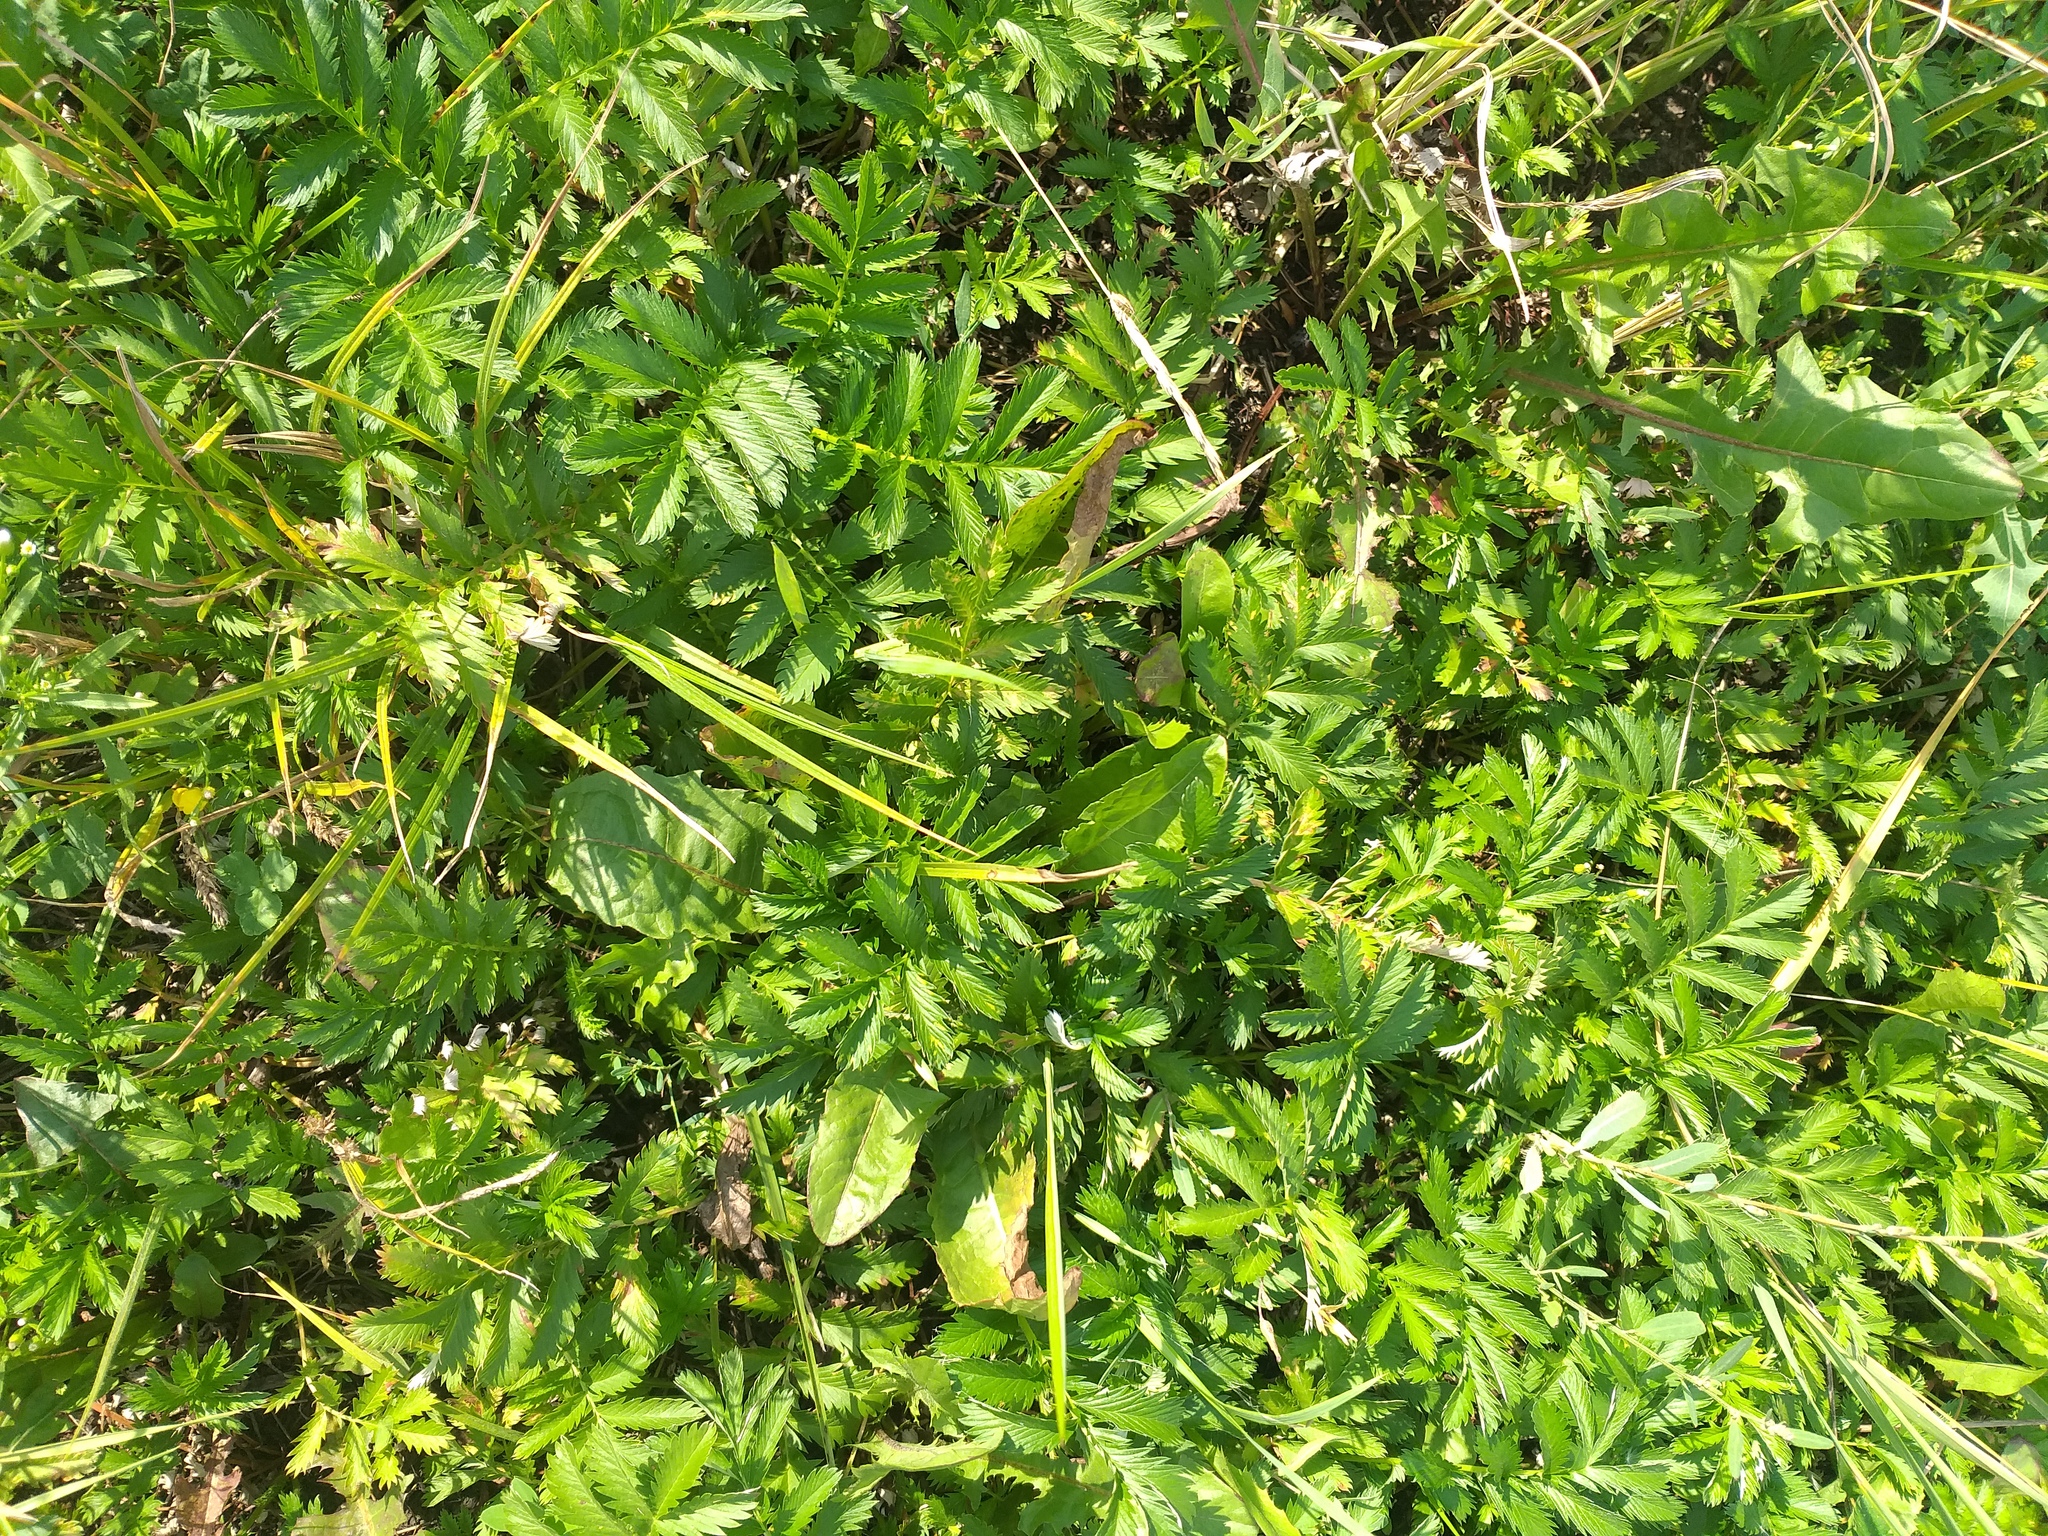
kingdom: Plantae
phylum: Tracheophyta
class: Magnoliopsida
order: Rosales
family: Rosaceae
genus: Argentina
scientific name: Argentina anserina
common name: Common silverweed
